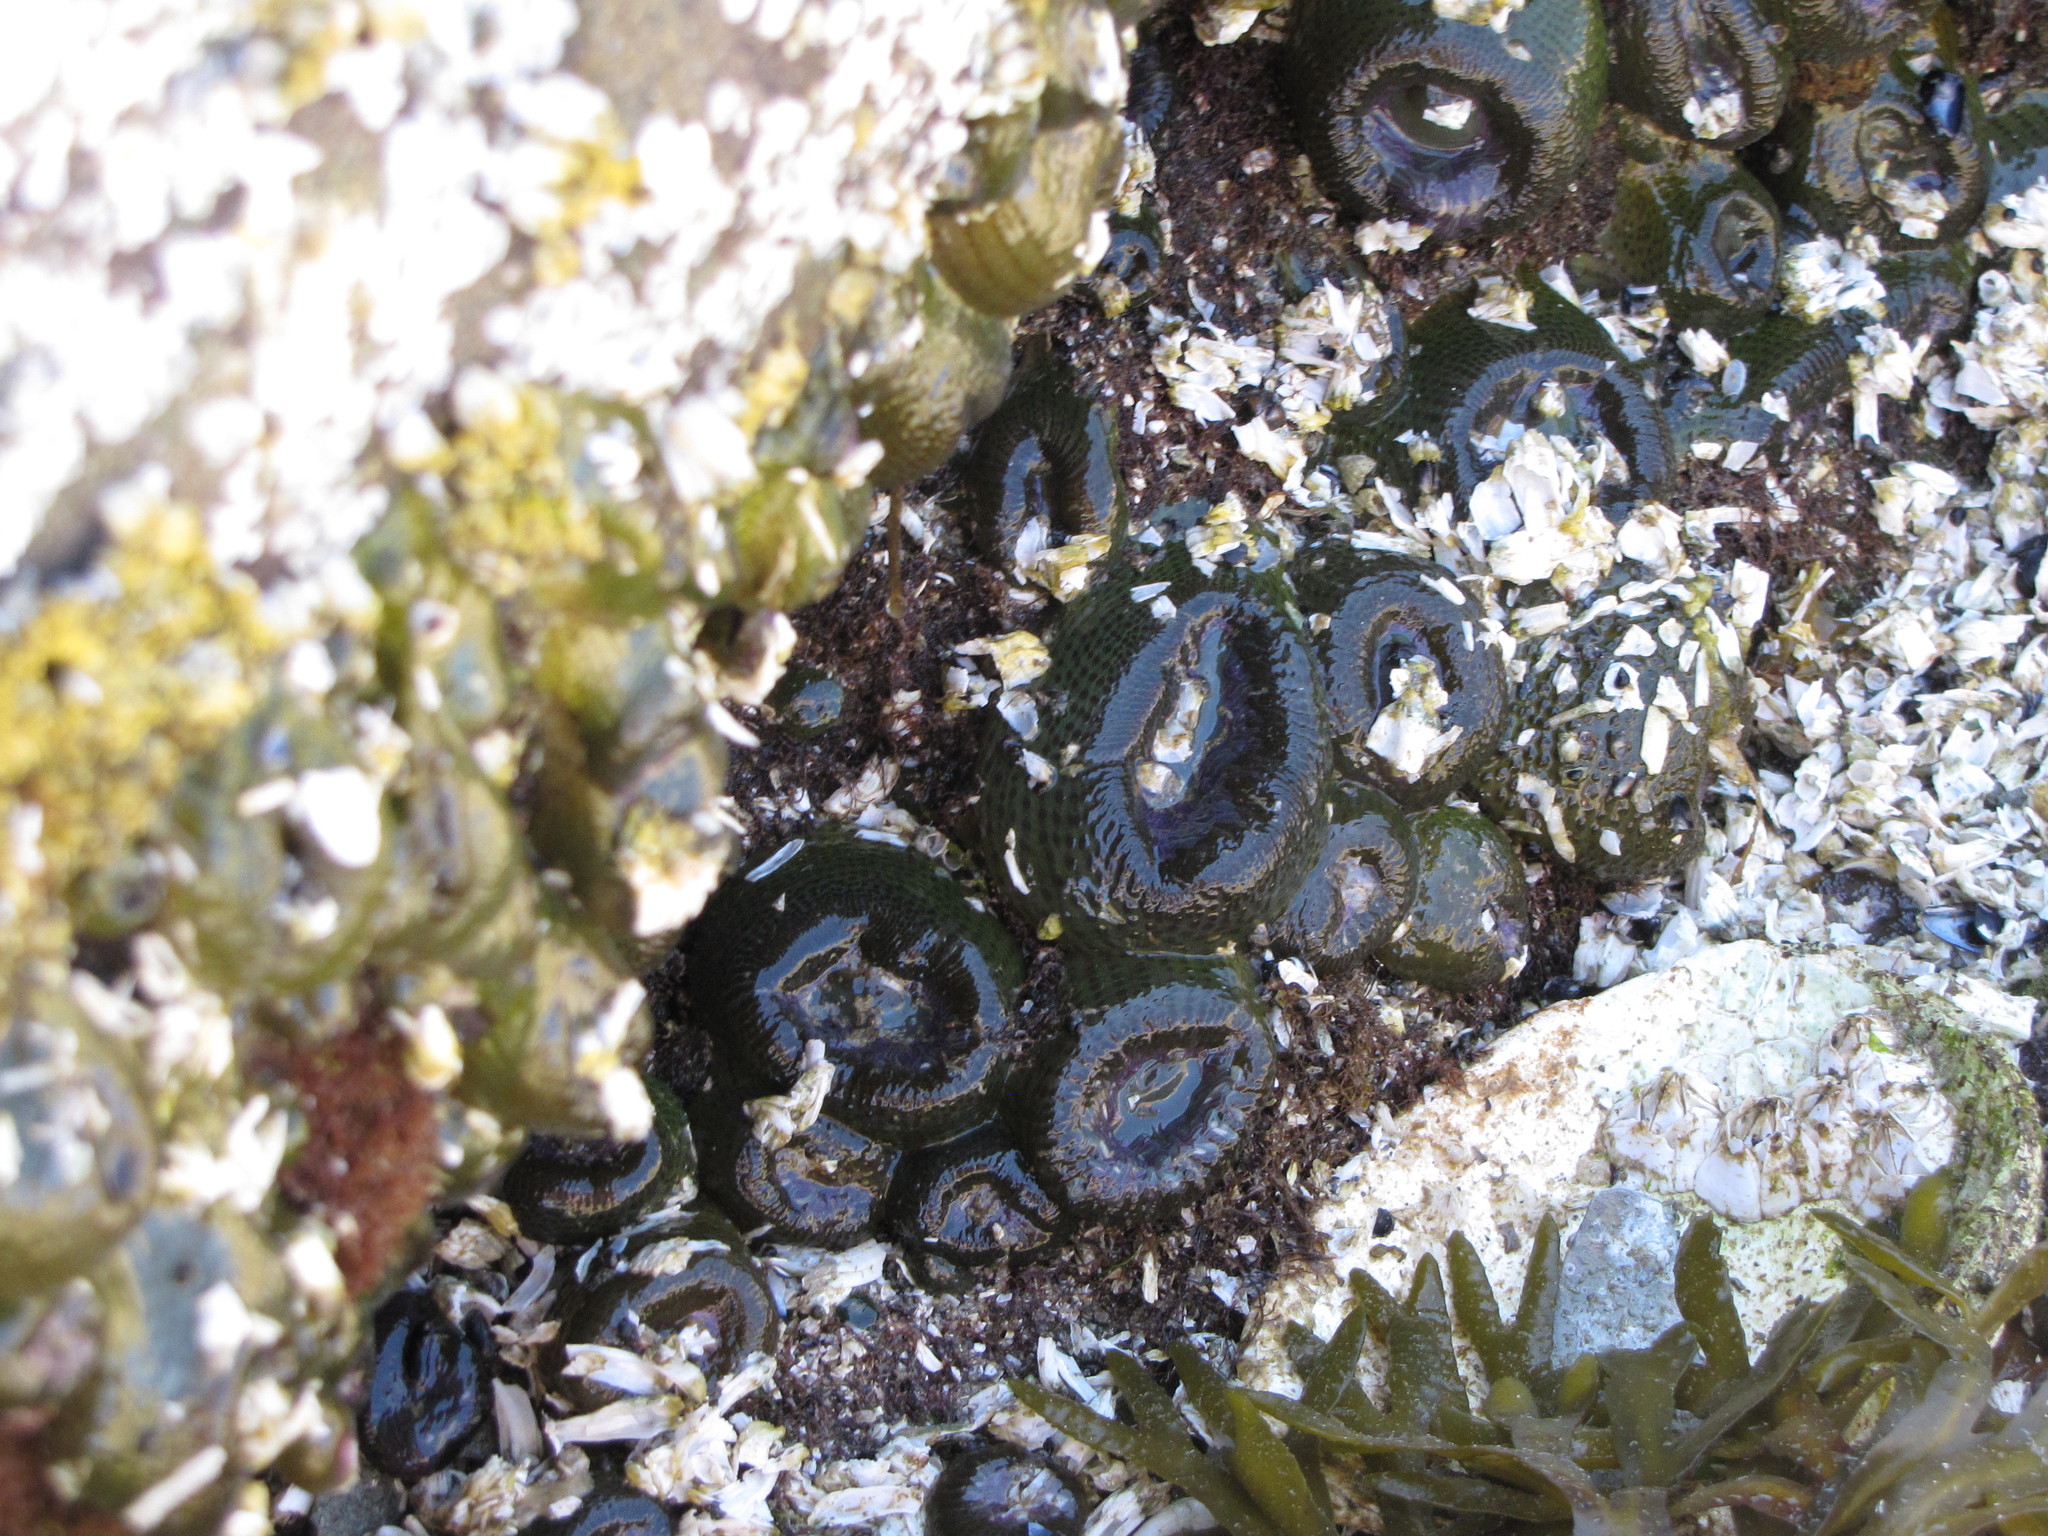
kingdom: Animalia
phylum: Cnidaria
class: Anthozoa
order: Actiniaria
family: Actiniidae
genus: Anthopleura
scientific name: Anthopleura elegantissima
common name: Clonal anemone
